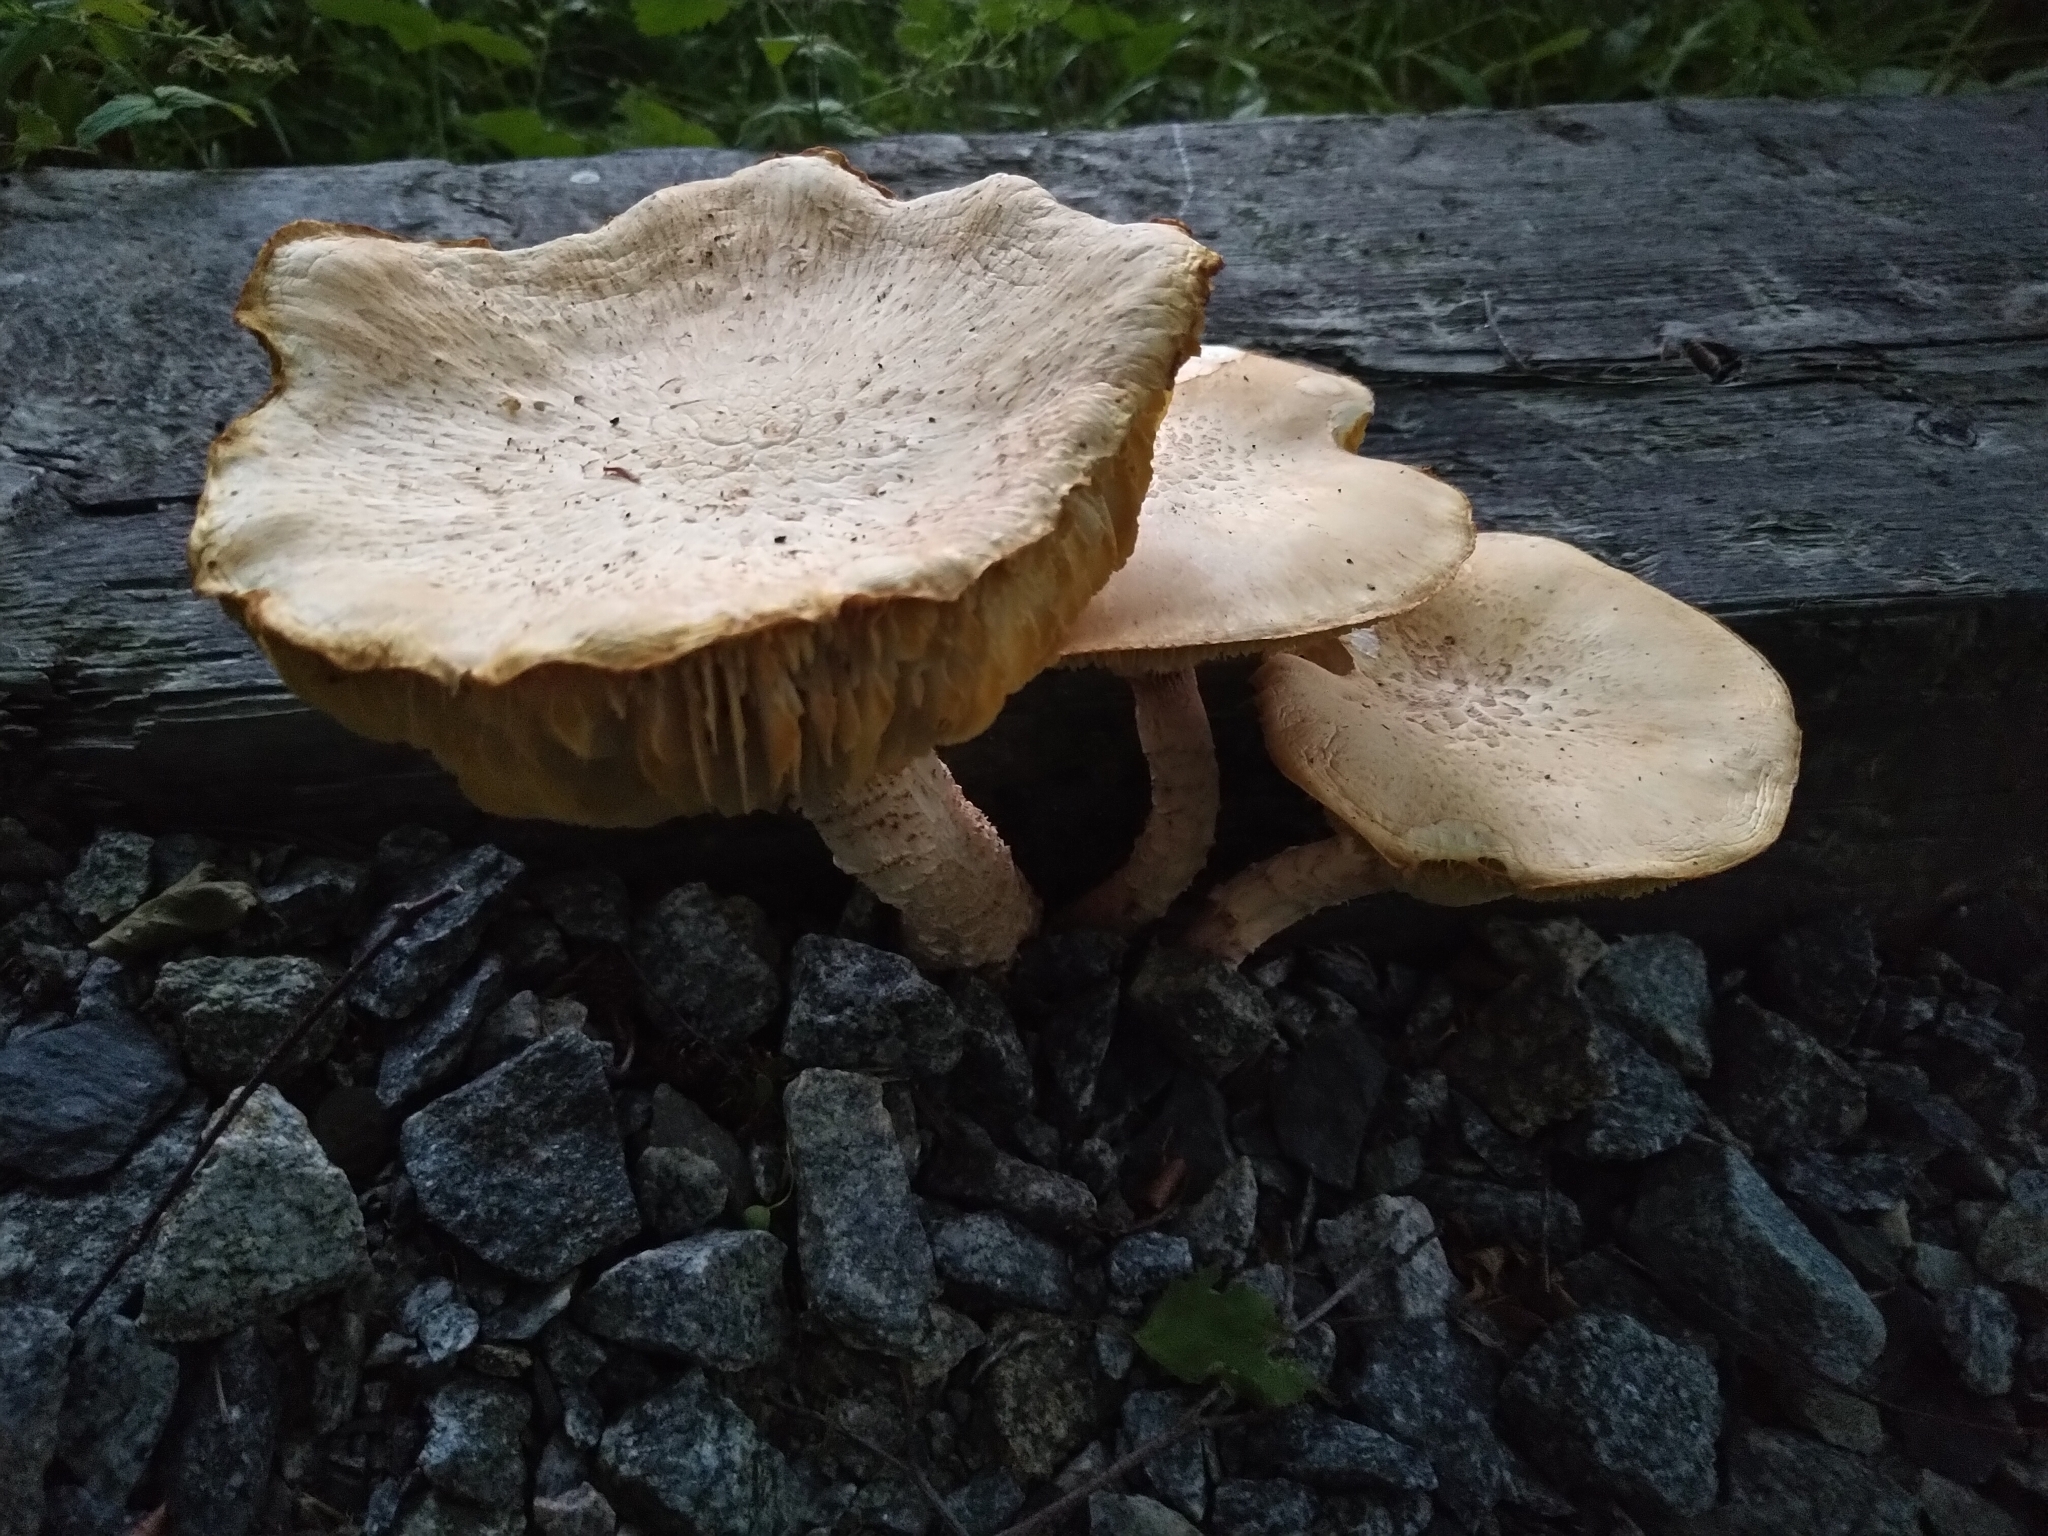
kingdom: Fungi
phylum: Basidiomycota
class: Agaricomycetes
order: Gloeophyllales
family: Gloeophyllaceae
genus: Neolentinus
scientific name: Neolentinus lepideus
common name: Scaly sawgill
